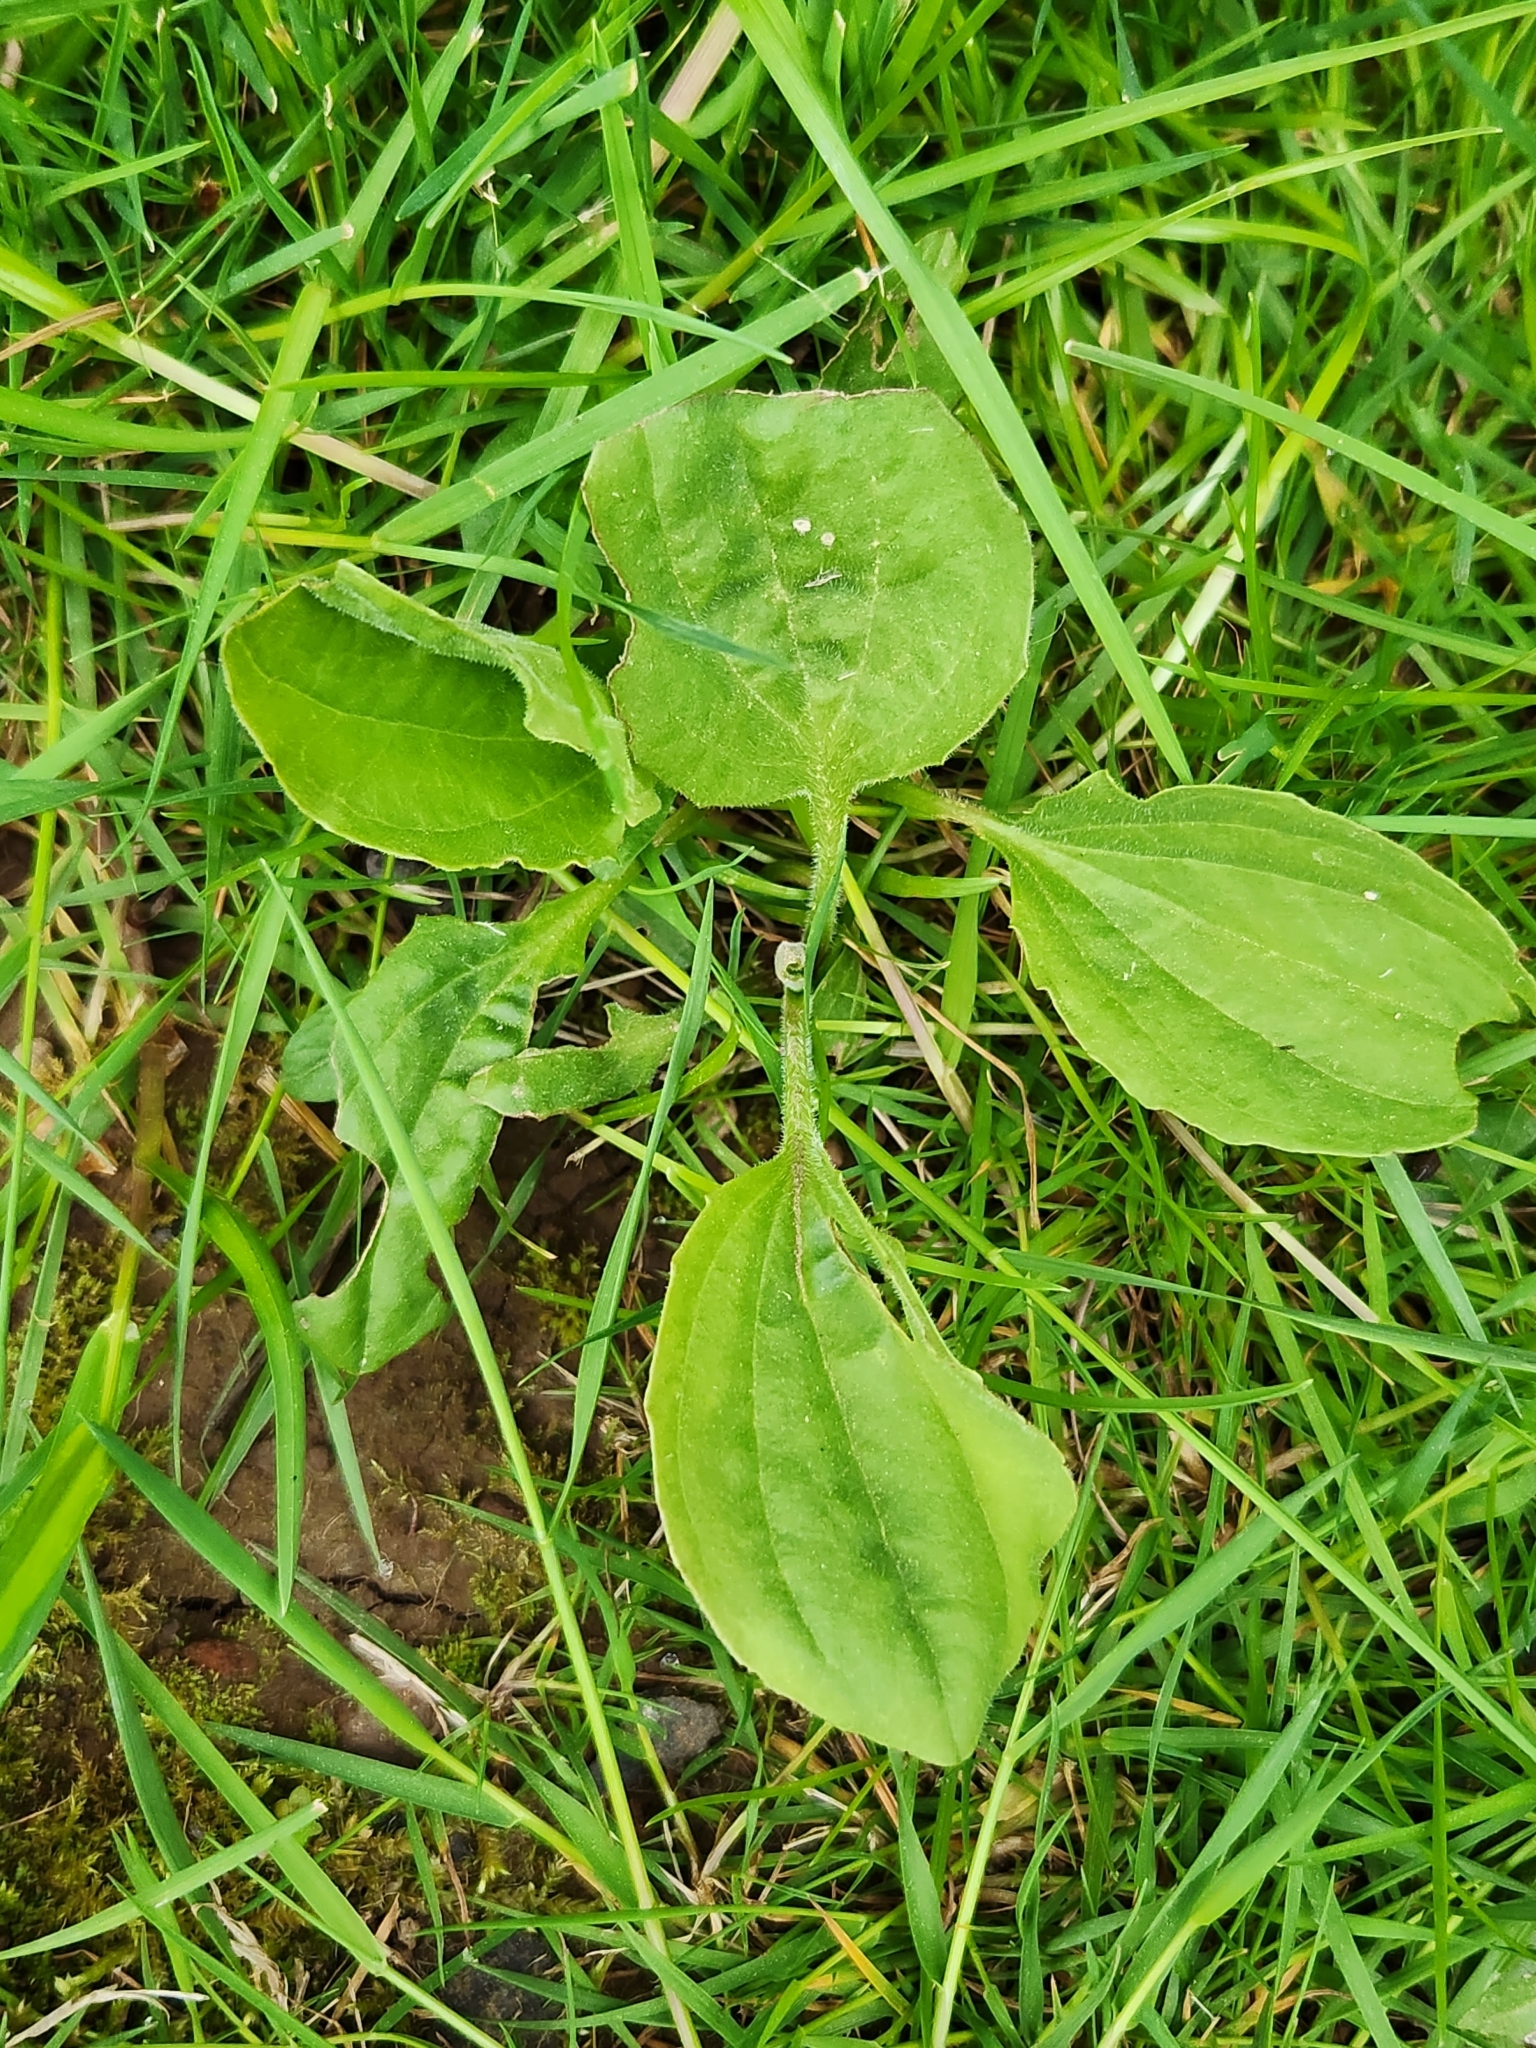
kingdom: Plantae
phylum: Tracheophyta
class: Magnoliopsida
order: Lamiales
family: Plantaginaceae
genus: Plantago
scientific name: Plantago major
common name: Common plantain
